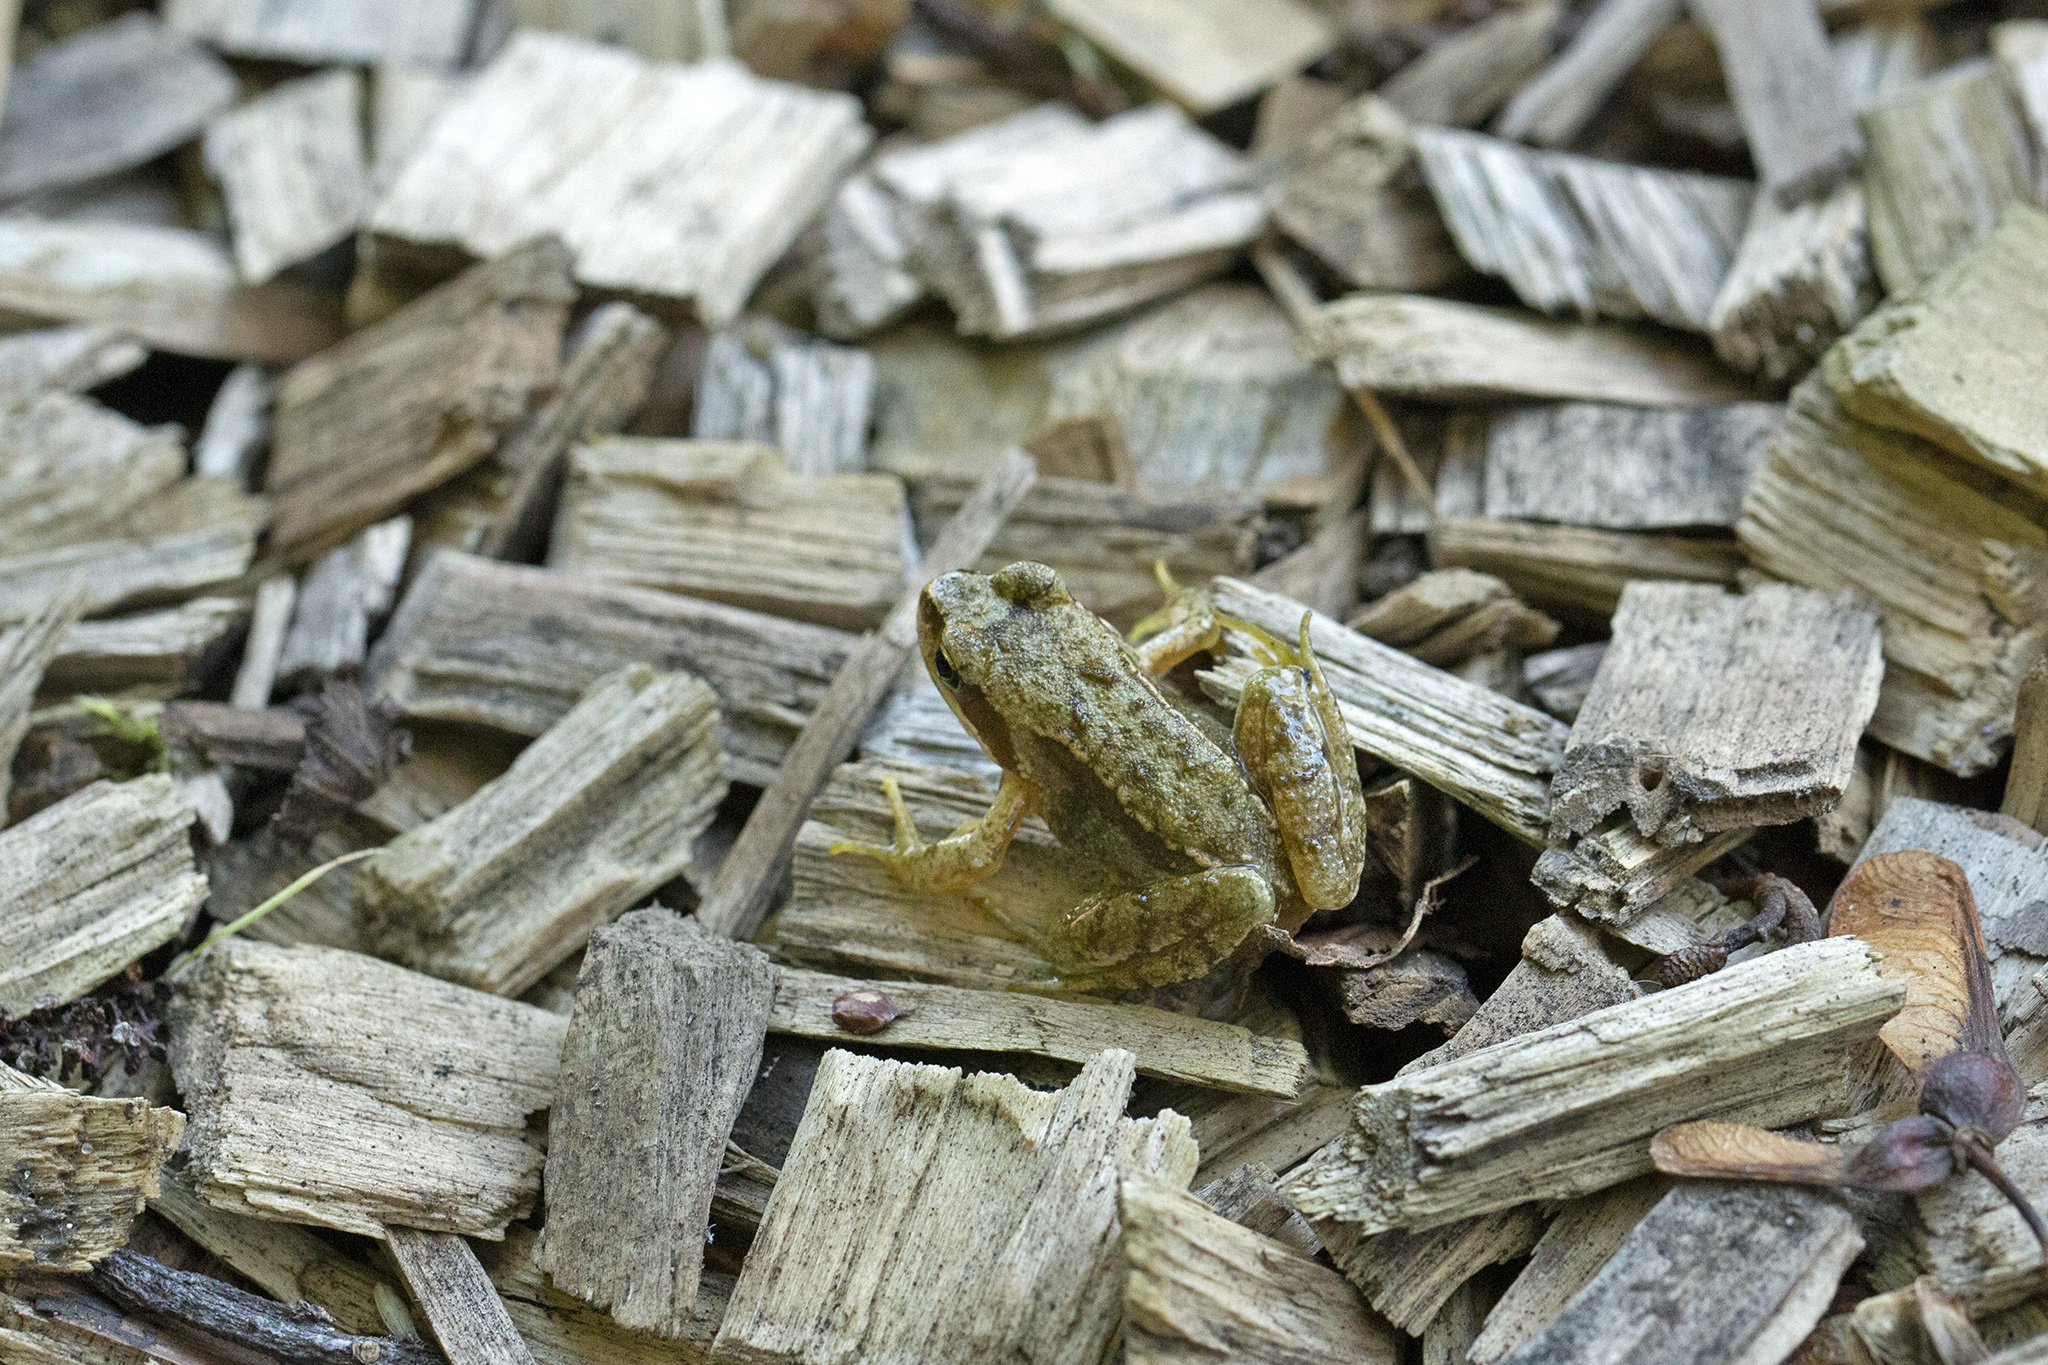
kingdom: Animalia
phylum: Chordata
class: Amphibia
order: Anura
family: Ranidae
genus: Rana
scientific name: Rana temporaria
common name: Common frog
